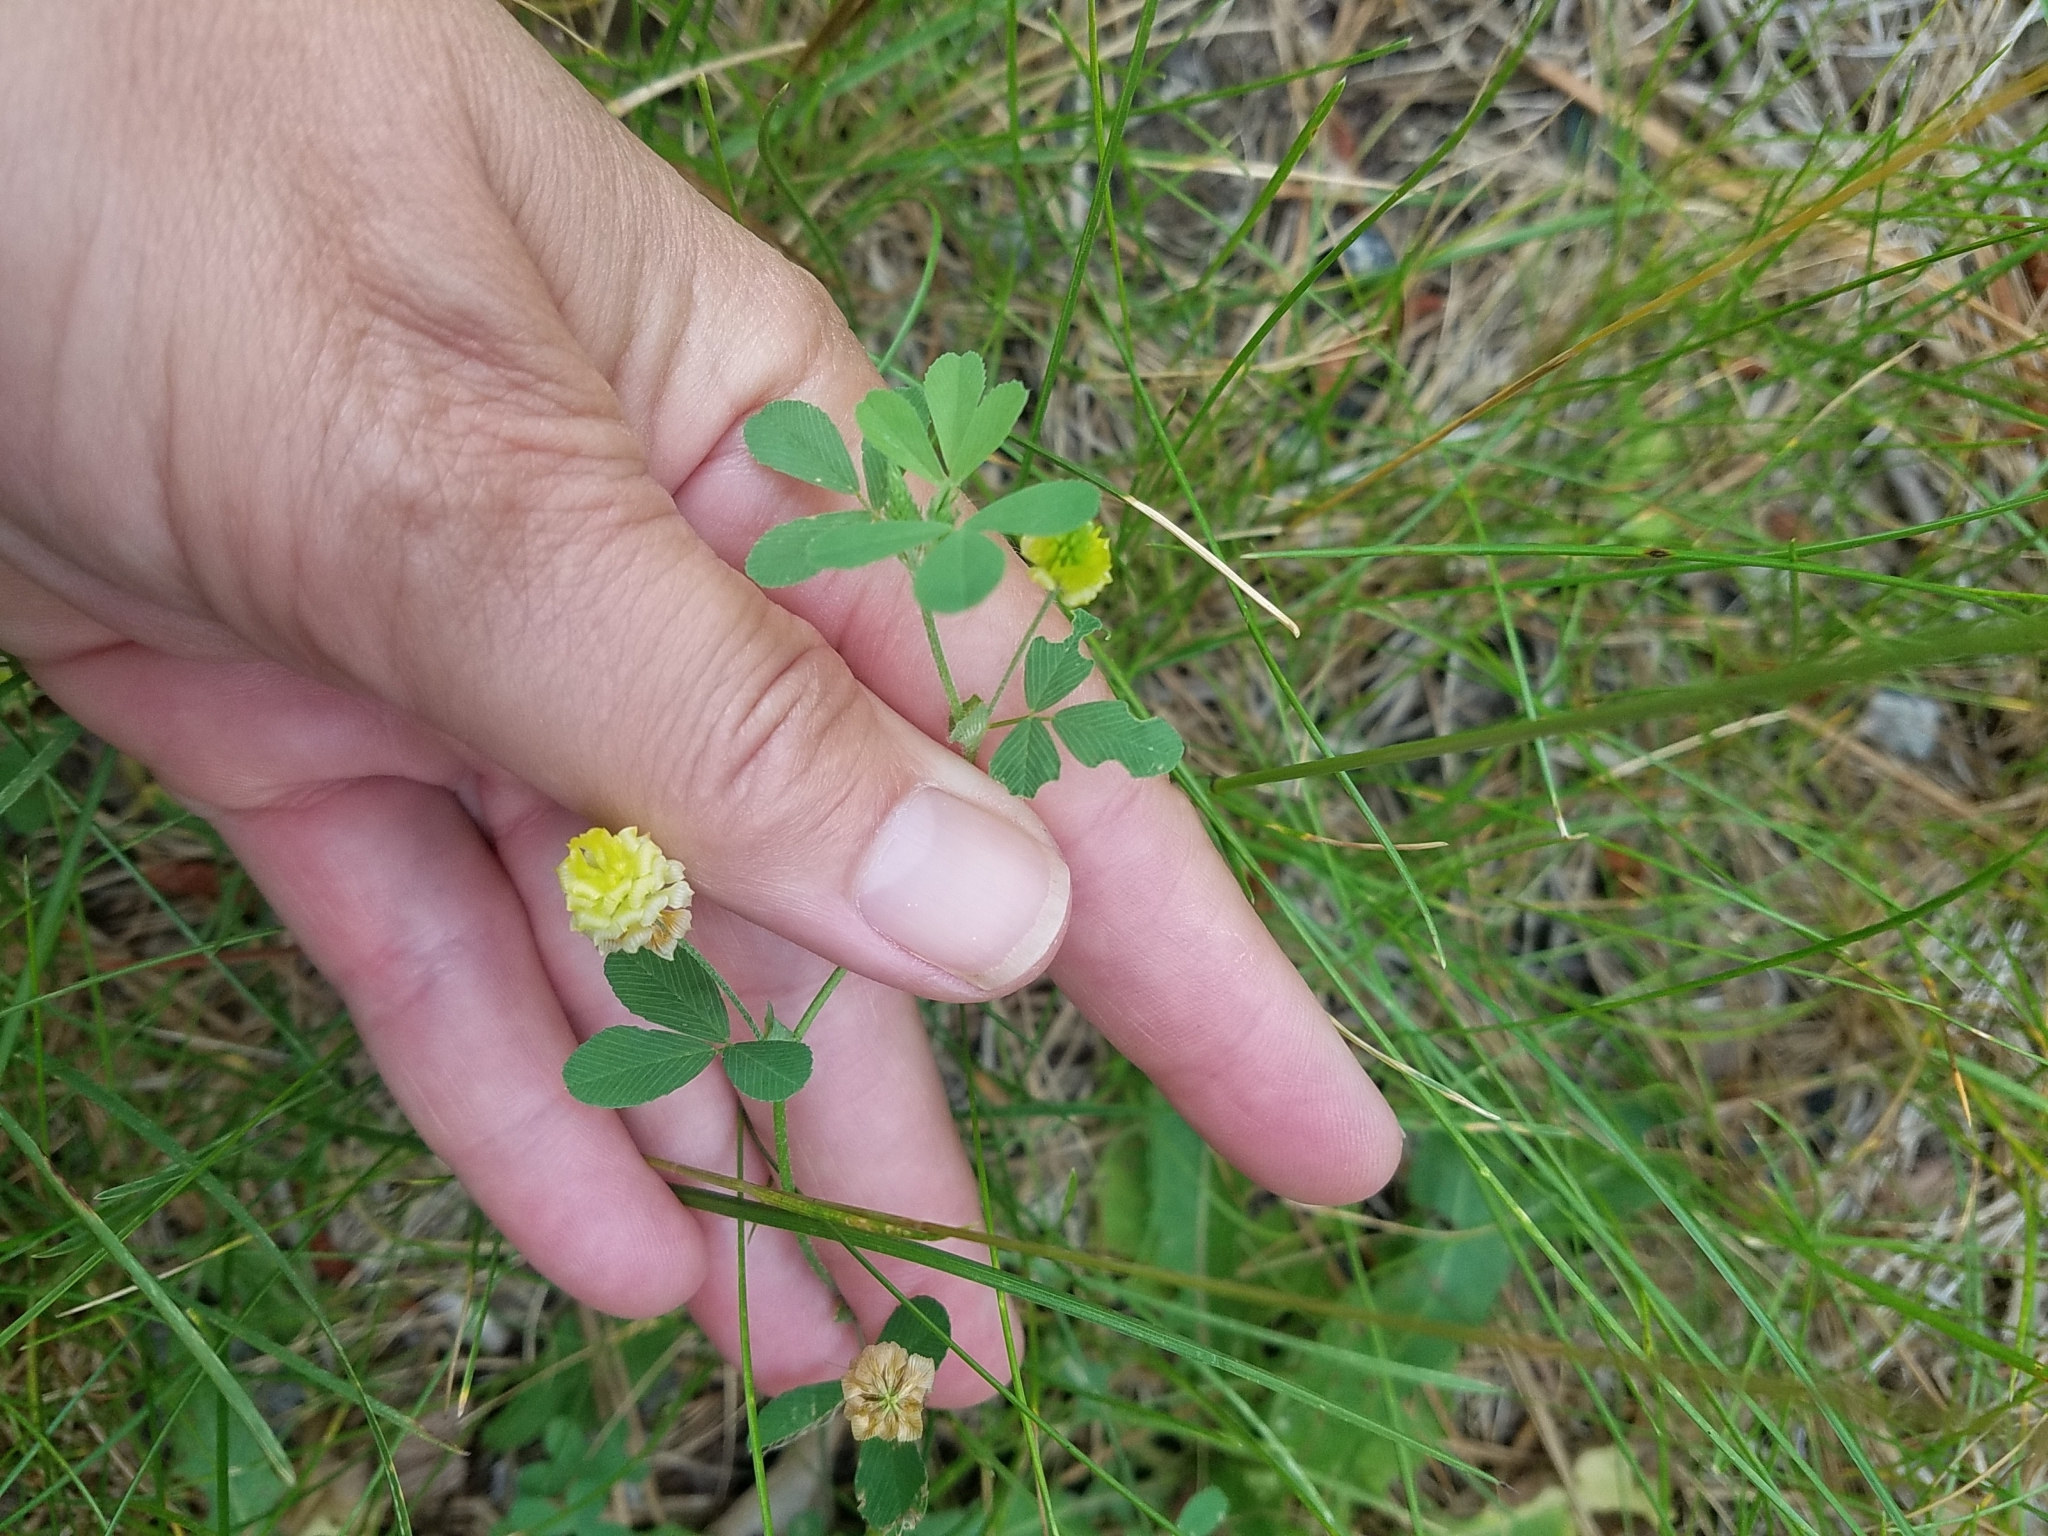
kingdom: Plantae
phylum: Tracheophyta
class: Magnoliopsida
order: Fabales
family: Fabaceae
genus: Trifolium
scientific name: Trifolium campestre
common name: Field clover
